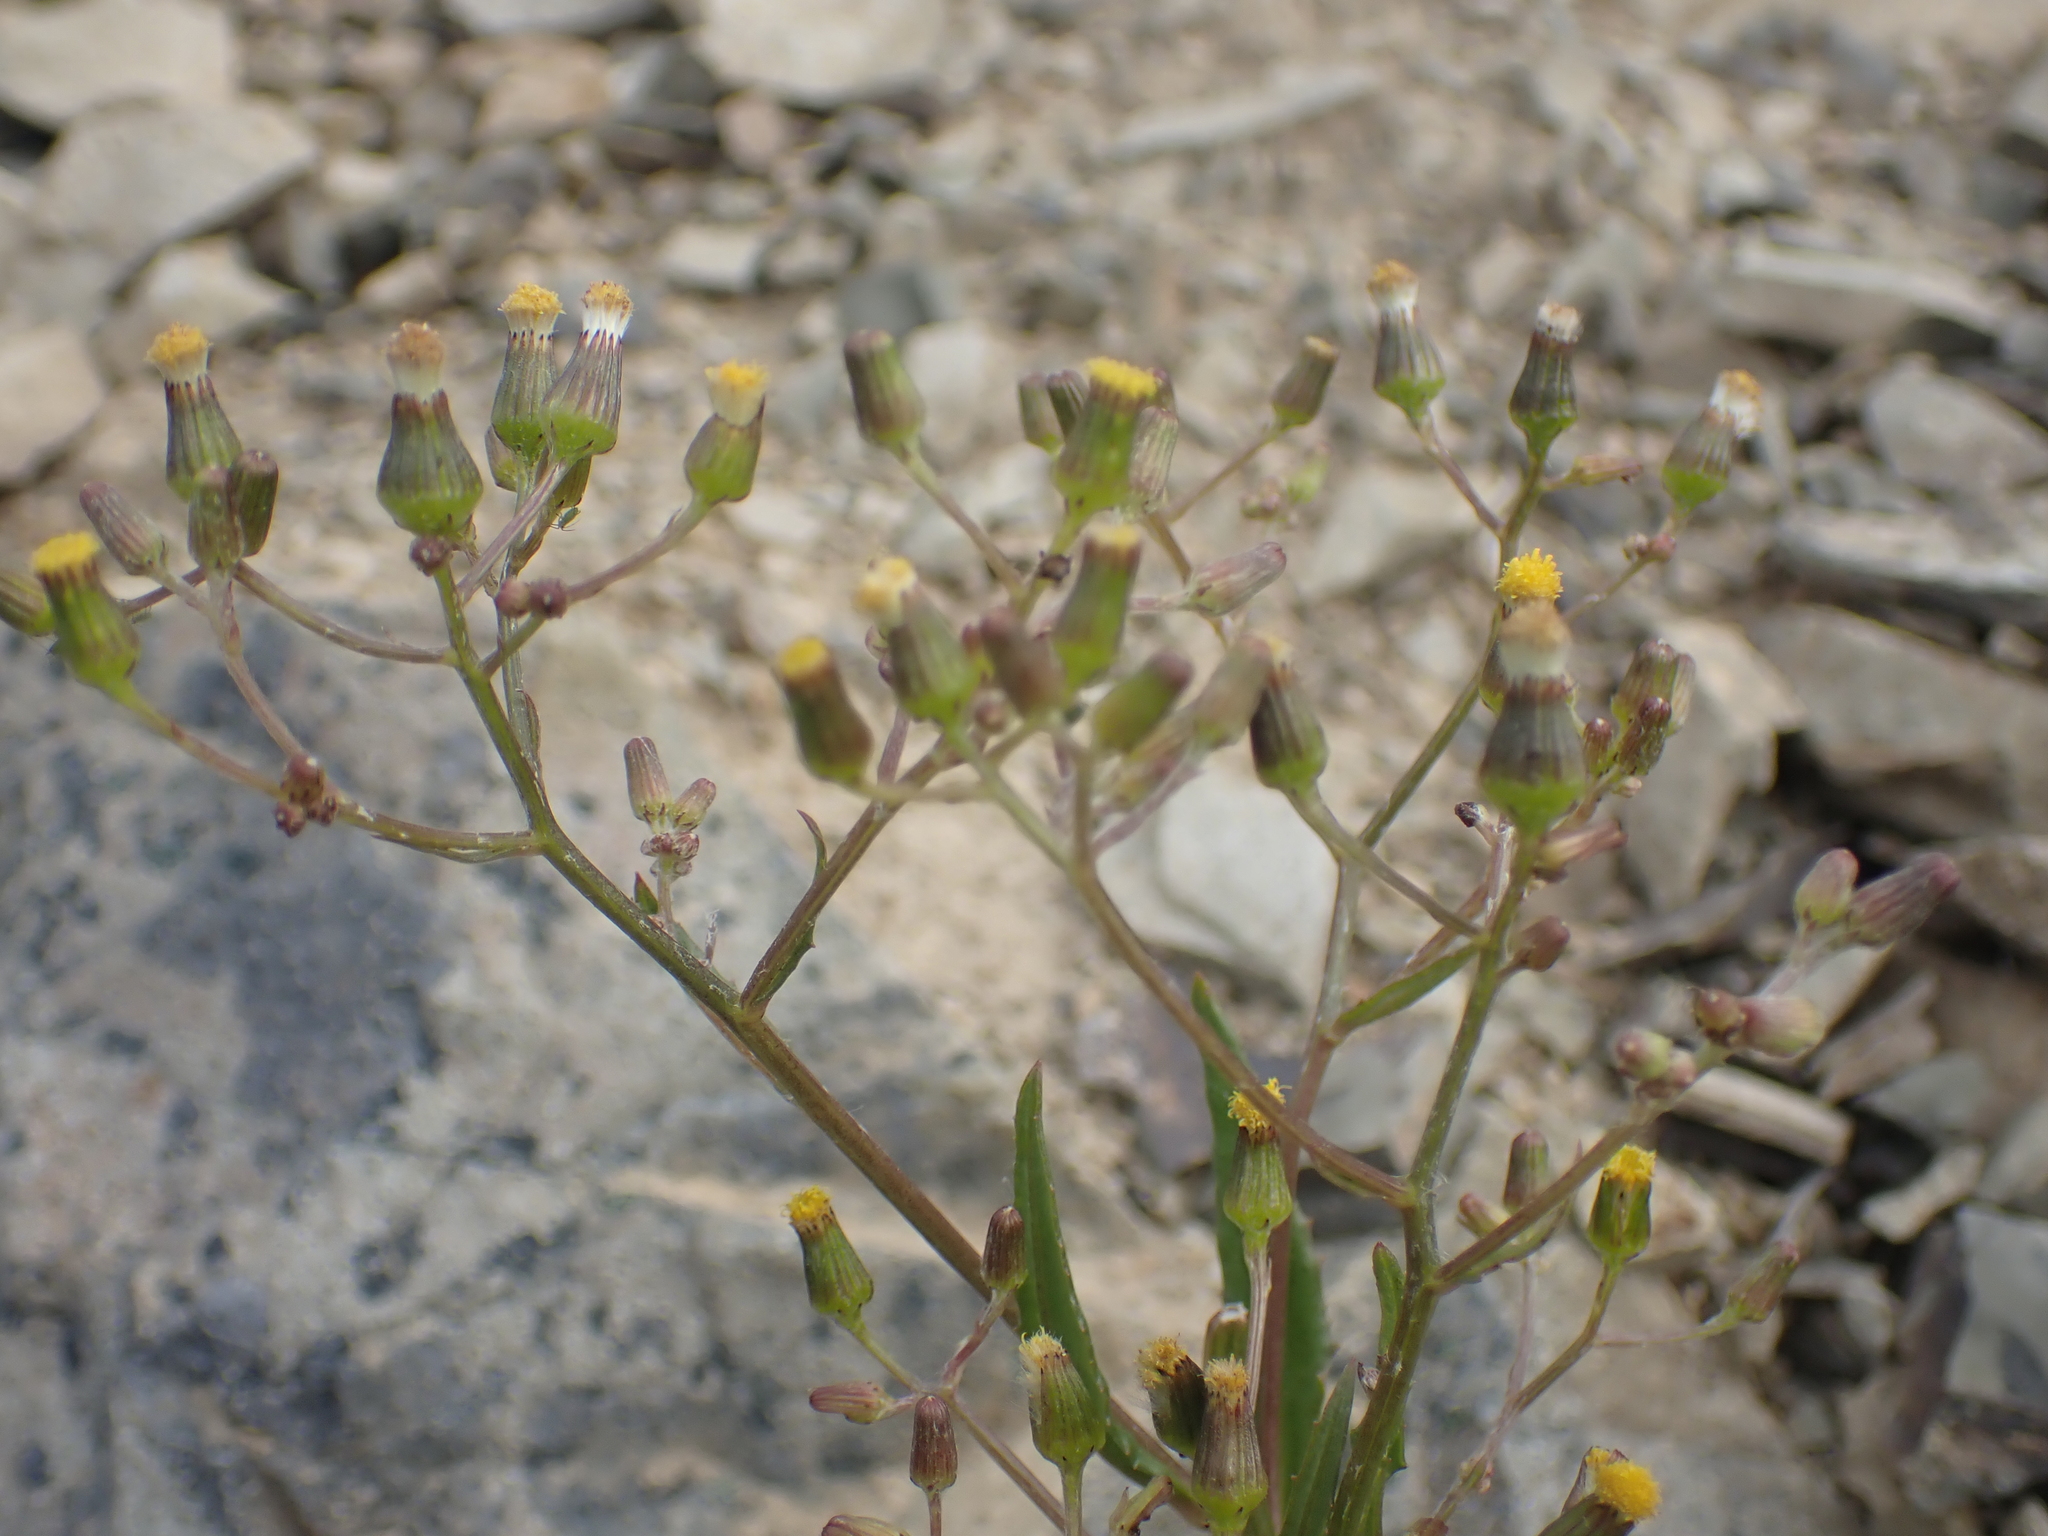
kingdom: Plantae
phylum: Tracheophyta
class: Magnoliopsida
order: Asterales
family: Asteraceae
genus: Senecio
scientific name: Senecio dunedinensis
